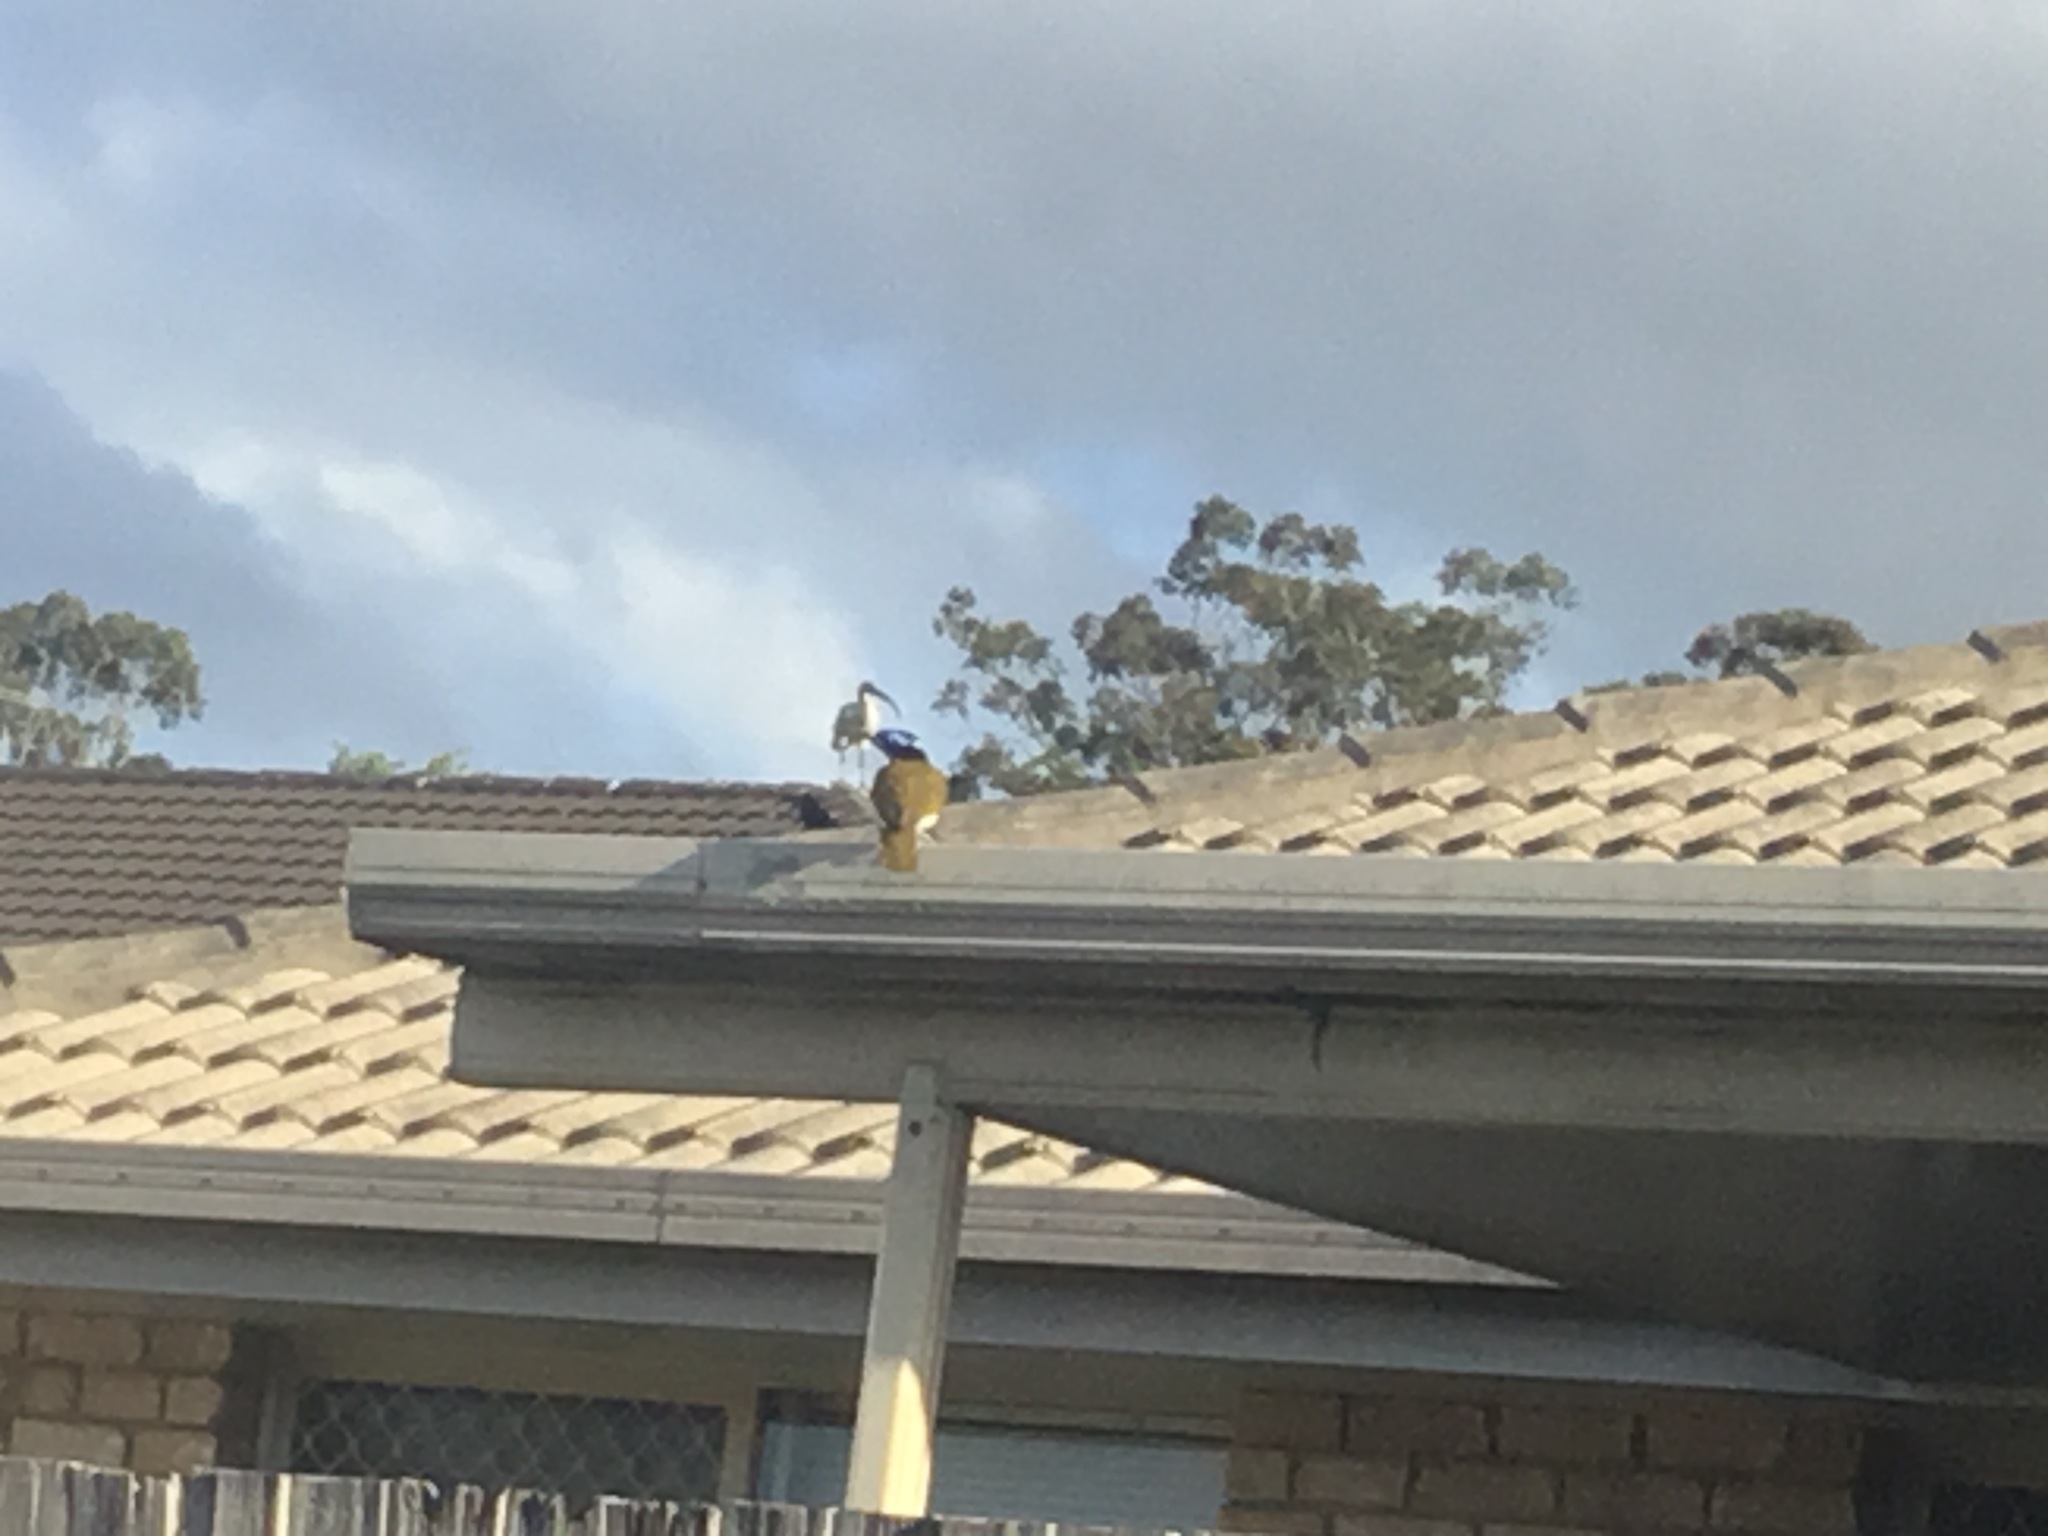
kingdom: Animalia
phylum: Chordata
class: Aves
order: Pelecaniformes
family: Threskiornithidae
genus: Threskiornis
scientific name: Threskiornis molucca
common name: Australian white ibis
